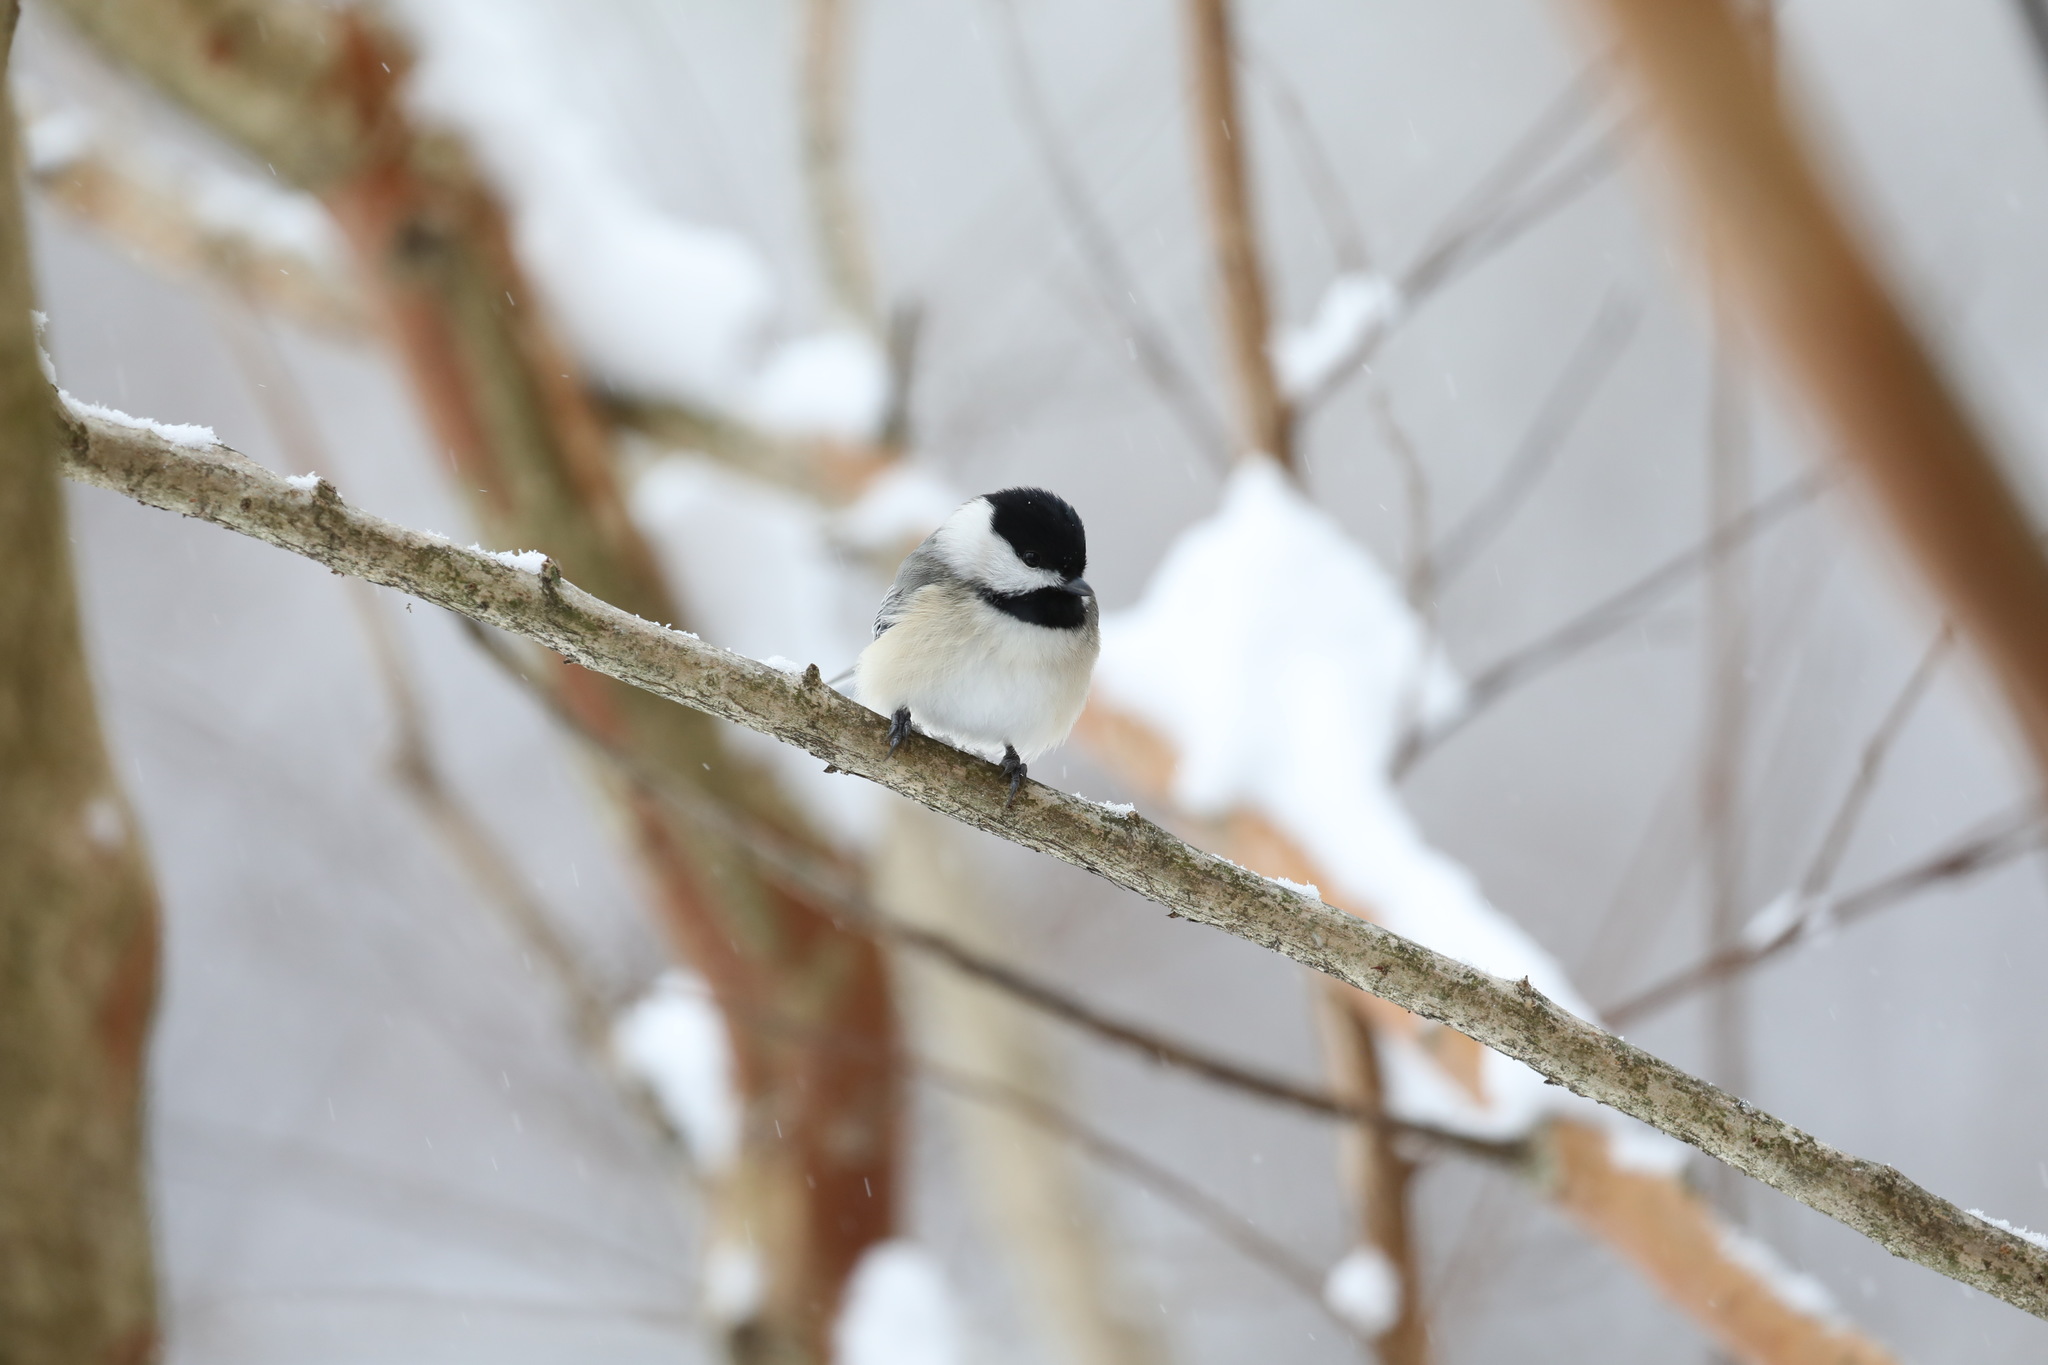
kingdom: Animalia
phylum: Chordata
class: Aves
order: Passeriformes
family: Paridae
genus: Poecile
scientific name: Poecile carolinensis
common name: Carolina chickadee
